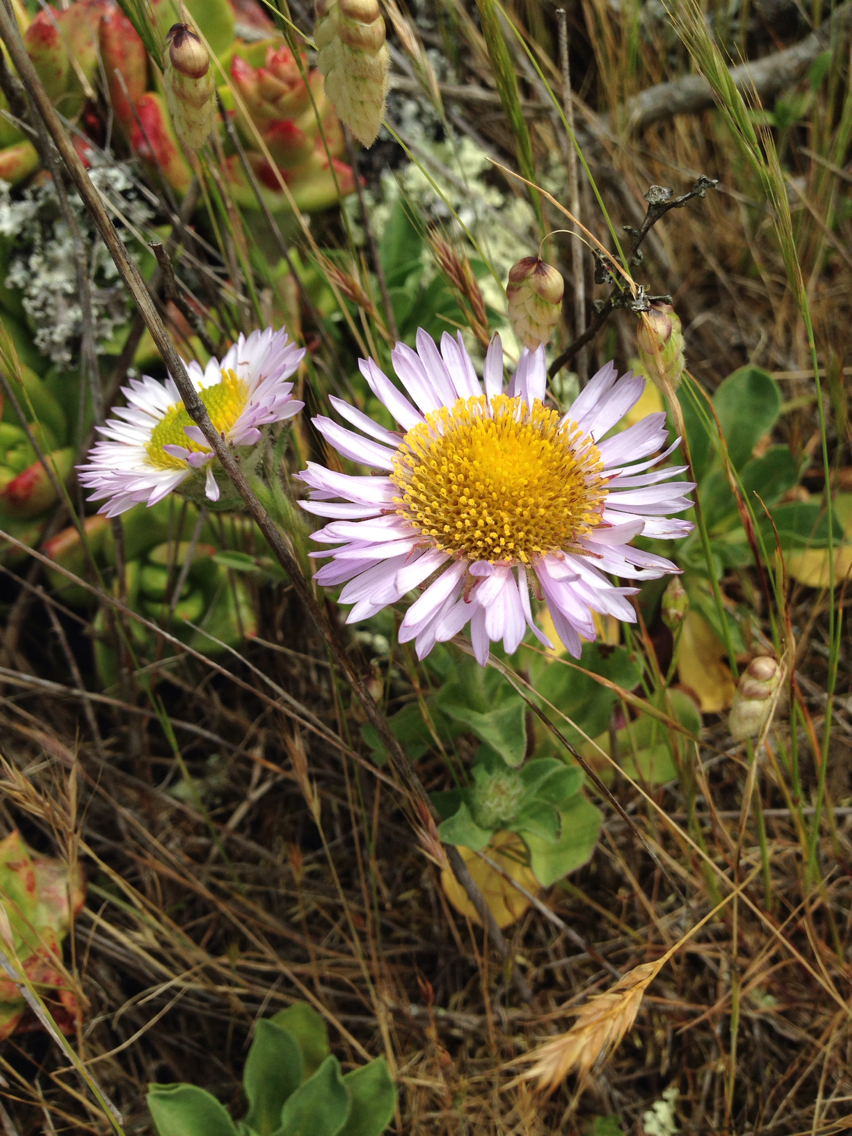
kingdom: Plantae
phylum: Tracheophyta
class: Magnoliopsida
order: Asterales
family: Asteraceae
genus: Erigeron
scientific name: Erigeron glaucus
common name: Seaside daisy
